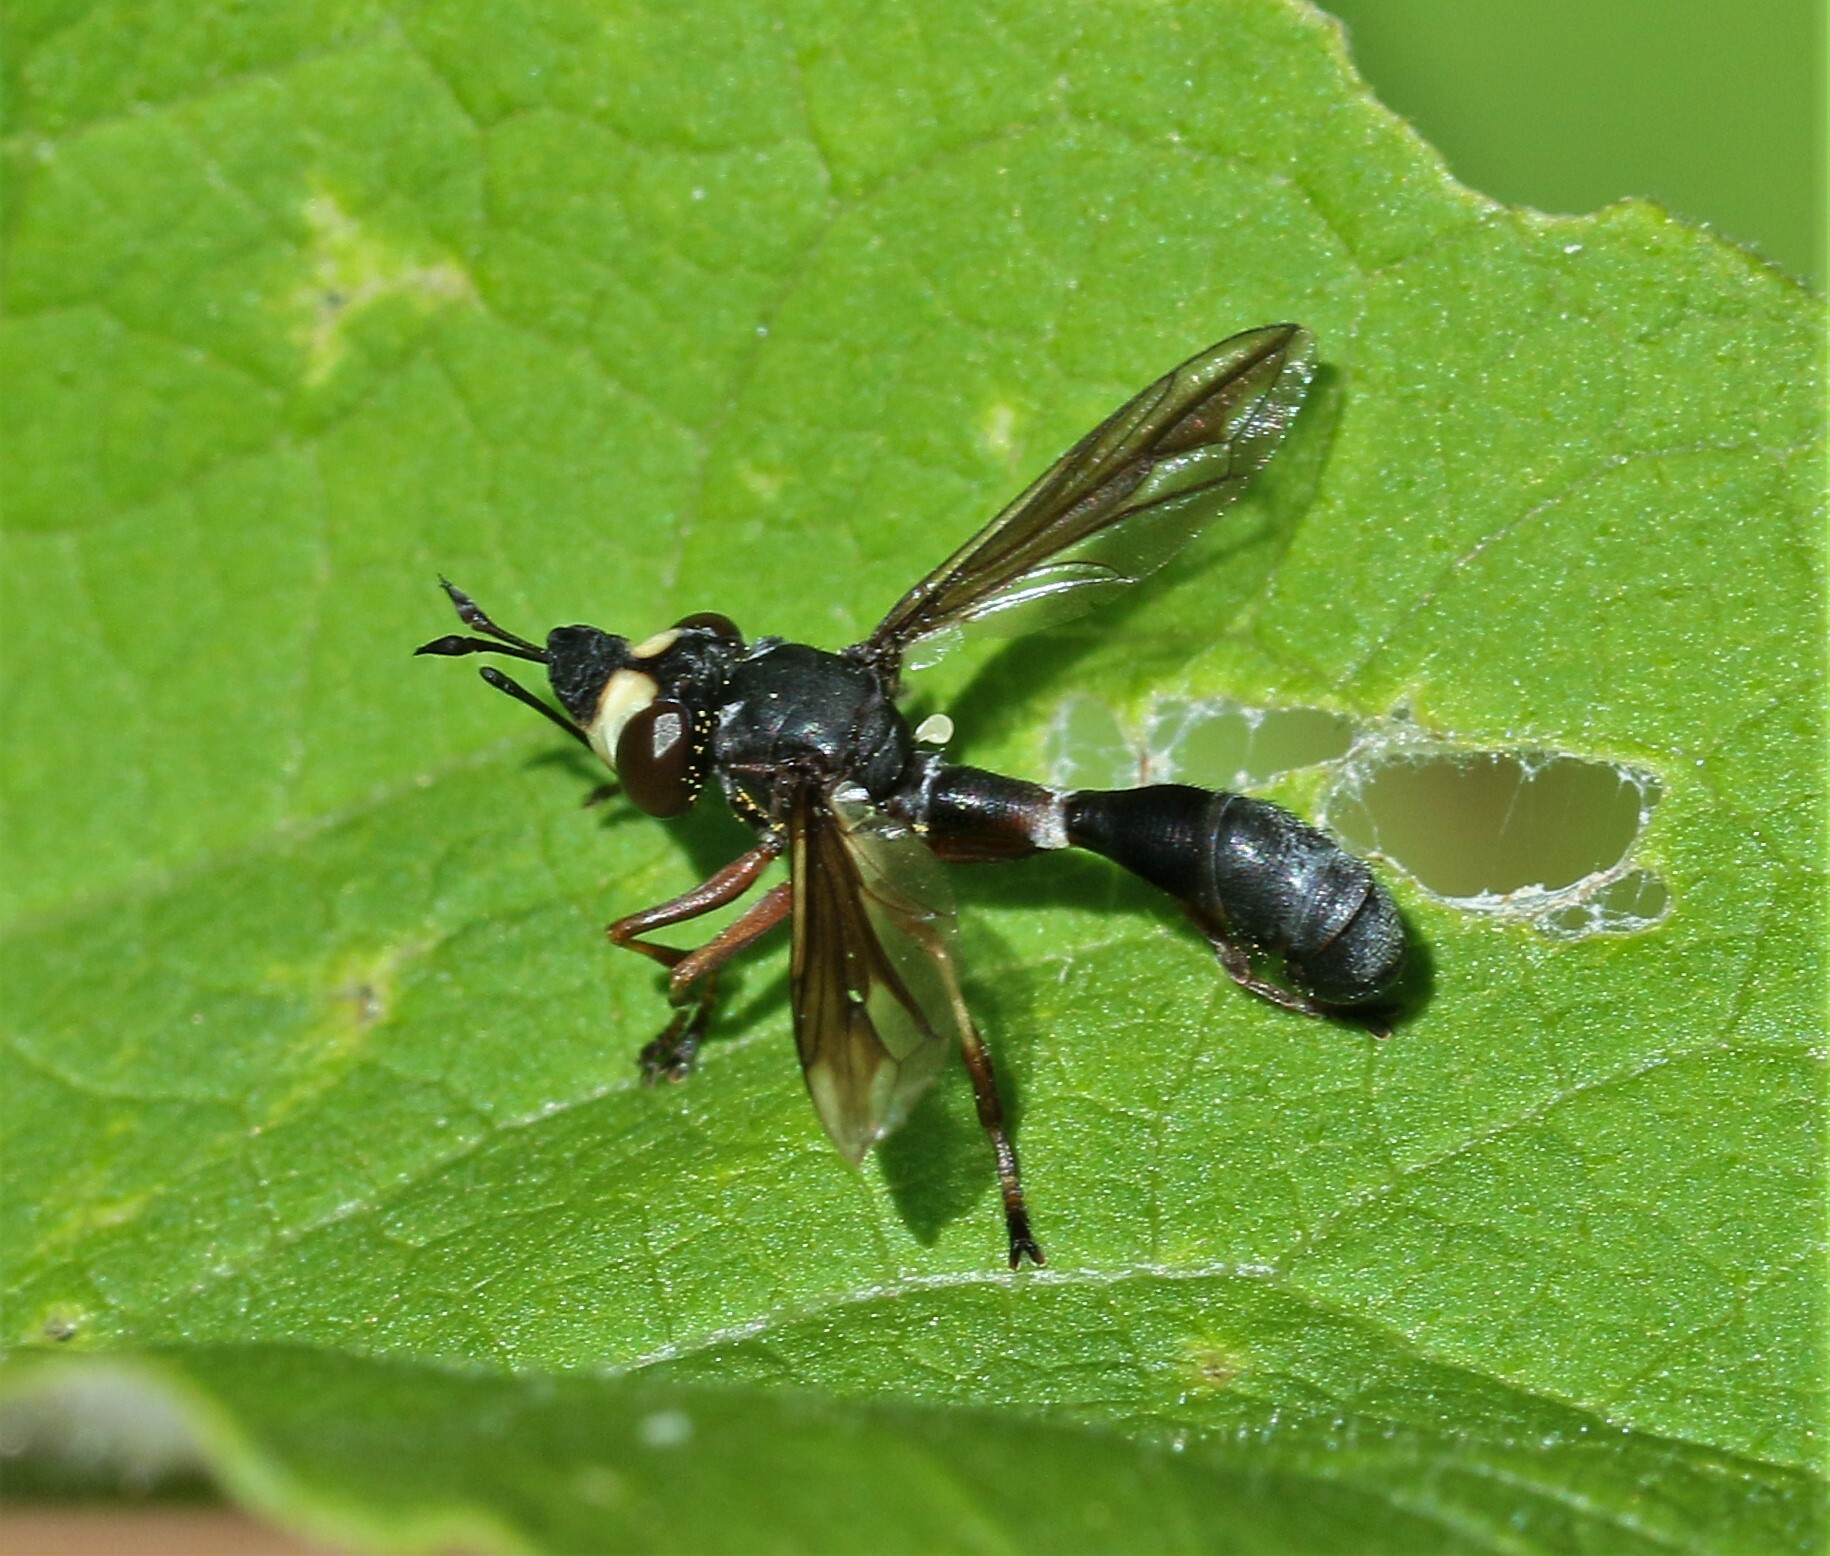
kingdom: Animalia
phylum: Arthropoda
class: Insecta
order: Diptera
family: Conopidae
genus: Physocephala
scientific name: Physocephala furcillata
